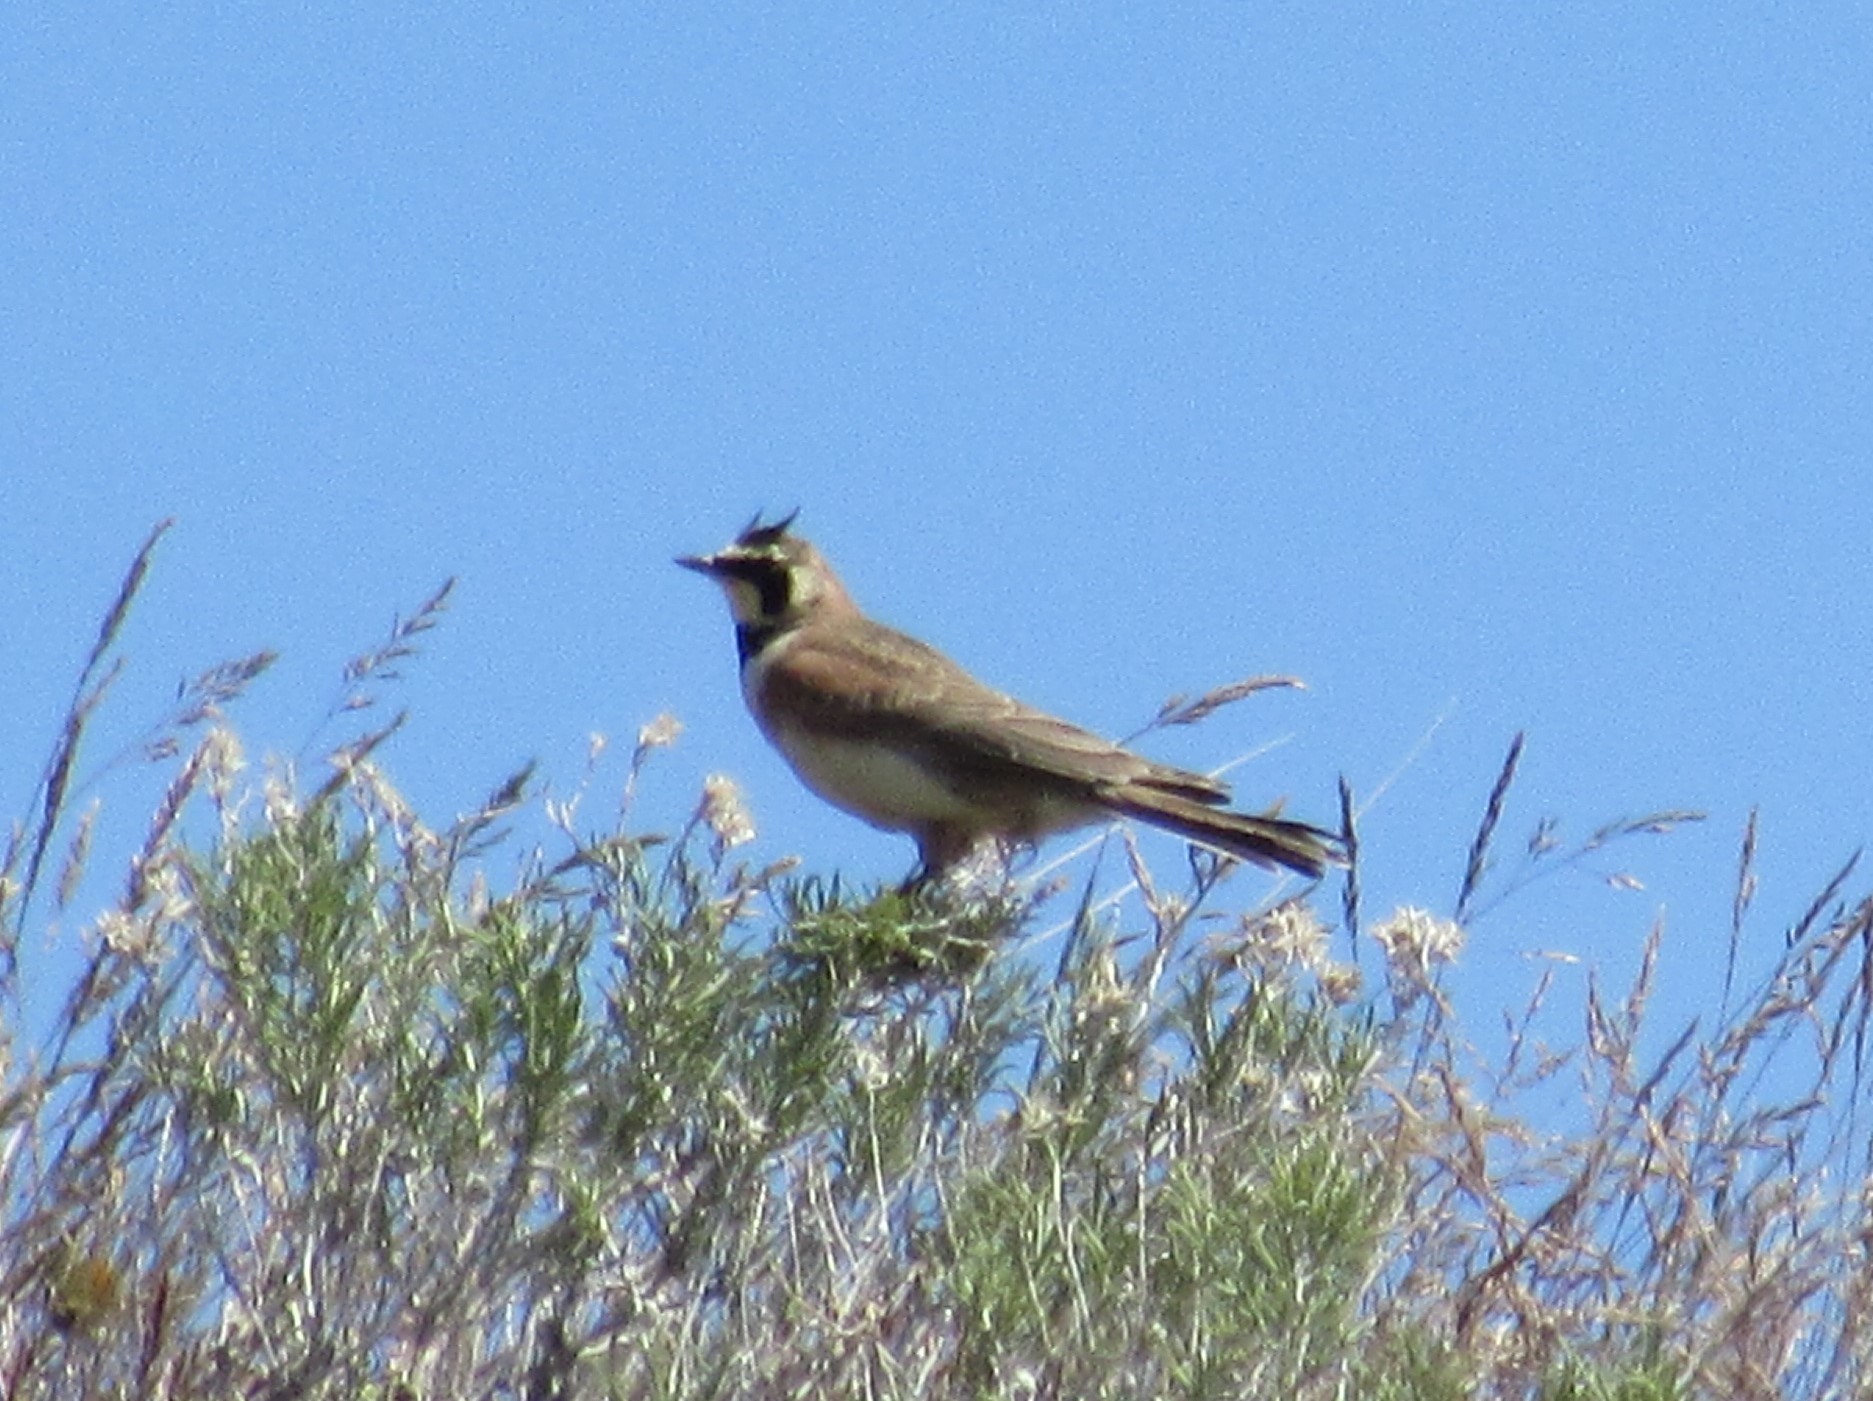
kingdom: Animalia
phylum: Chordata
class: Aves
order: Passeriformes
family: Alaudidae
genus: Eremophila
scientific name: Eremophila alpestris
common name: Horned lark
